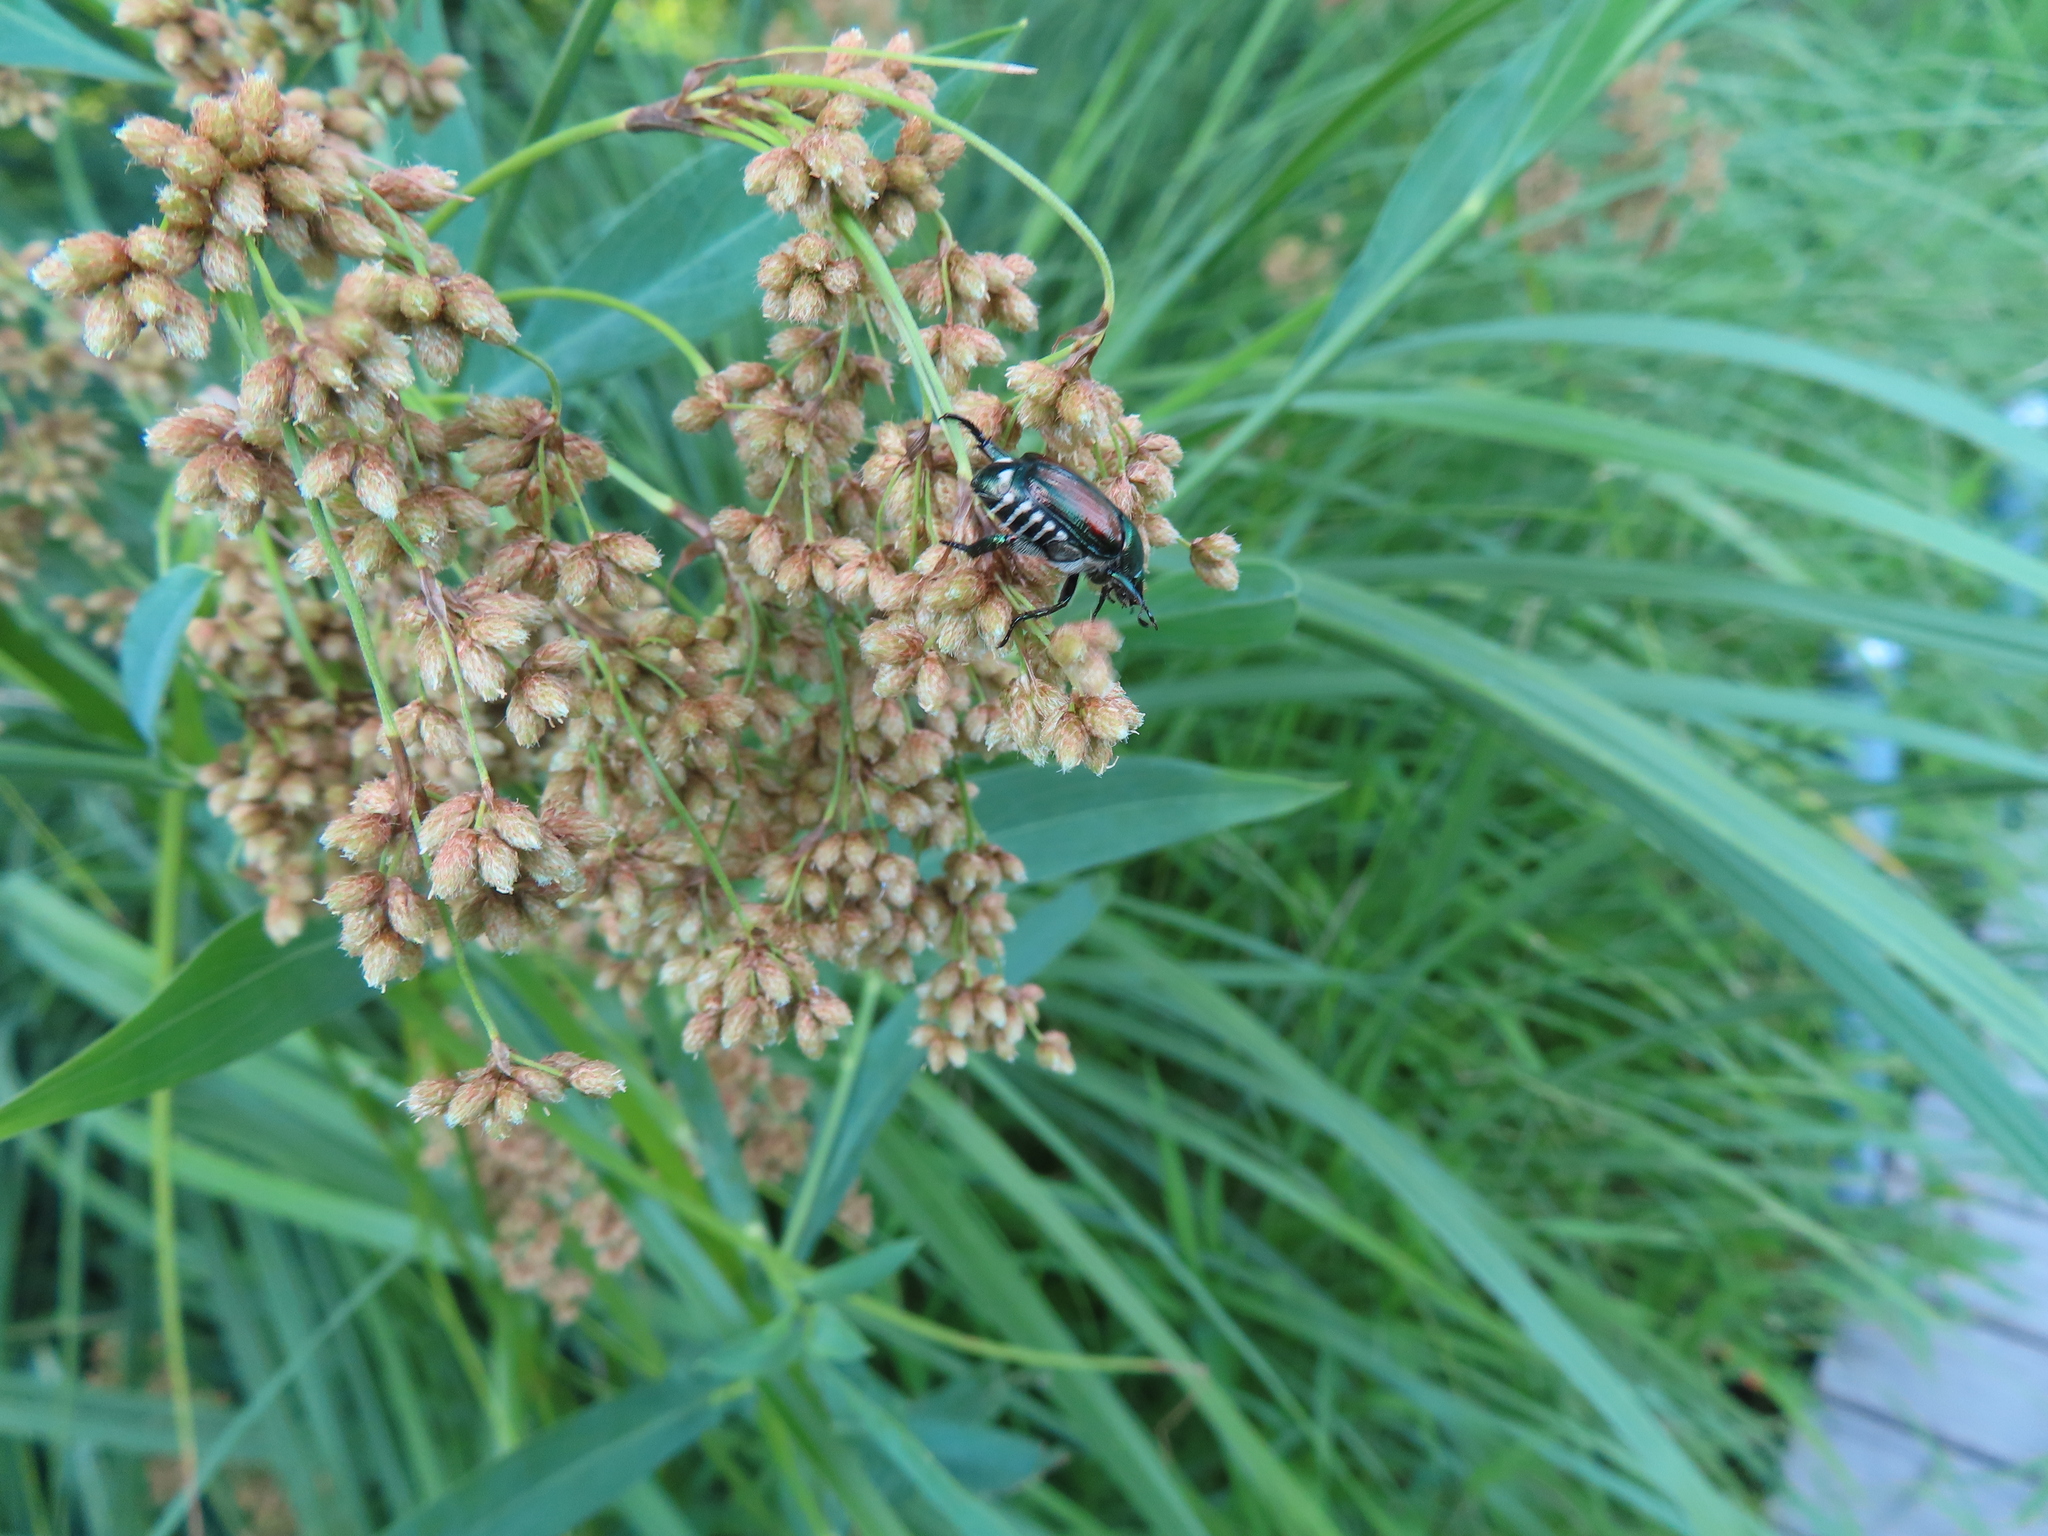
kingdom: Animalia
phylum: Arthropoda
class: Insecta
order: Coleoptera
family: Scarabaeidae
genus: Popillia
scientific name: Popillia japonica
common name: Japanese beetle
